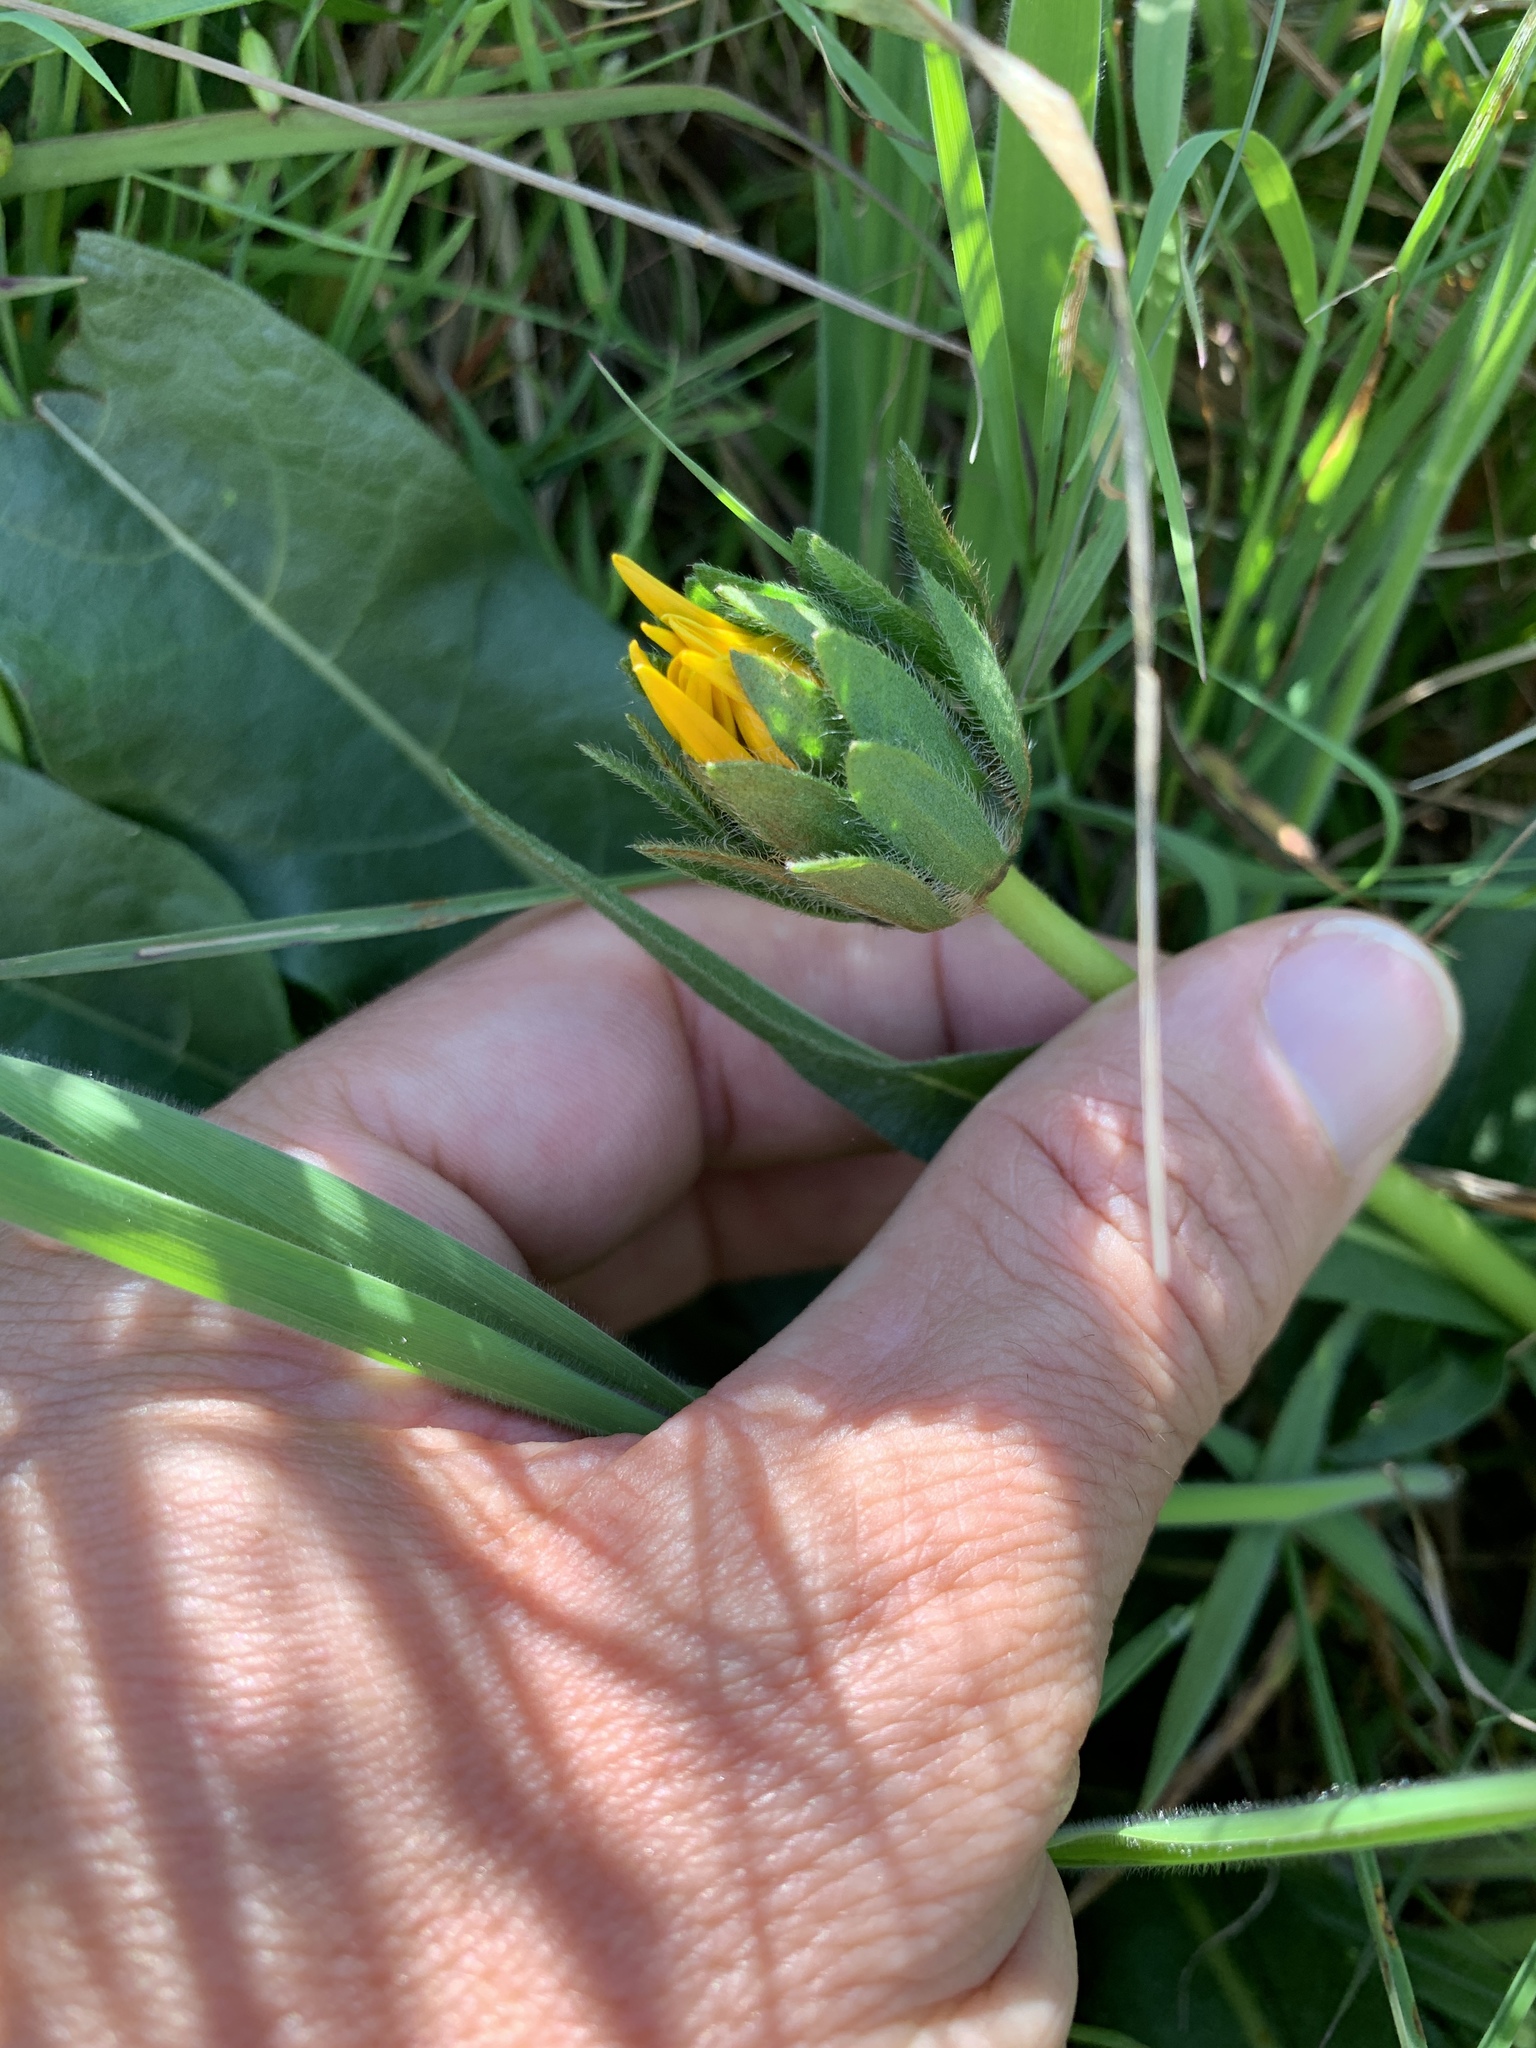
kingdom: Plantae
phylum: Tracheophyta
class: Magnoliopsida
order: Asterales
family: Asteraceae
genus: Wyethia
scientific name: Wyethia angustifolia
